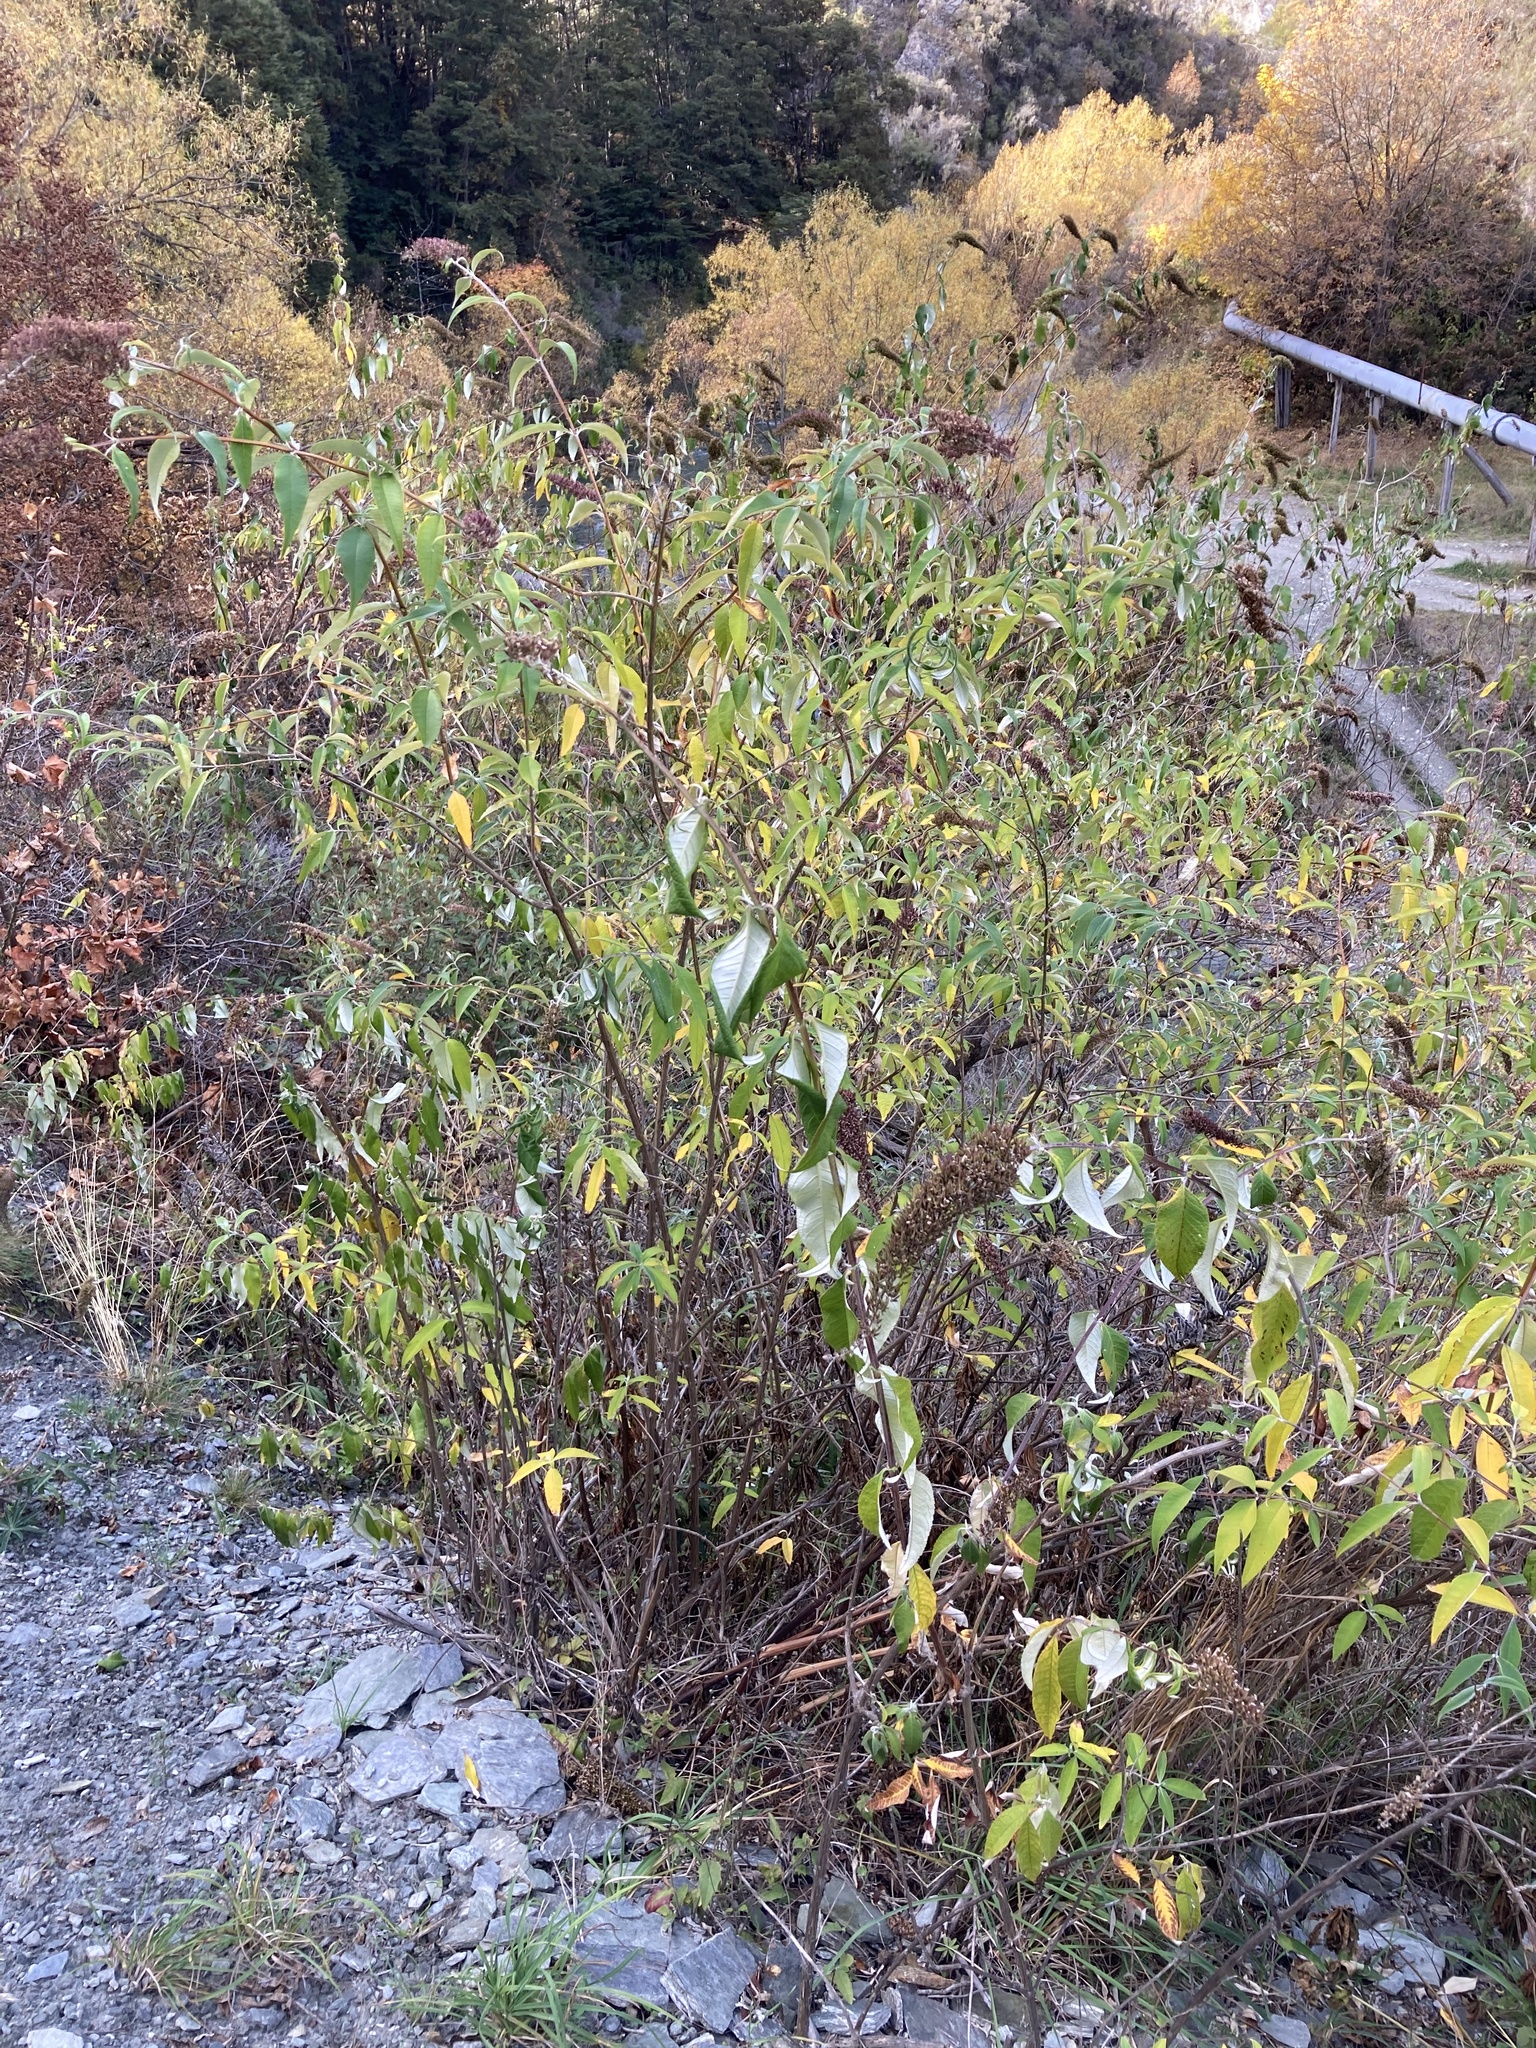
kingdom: Plantae
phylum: Tracheophyta
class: Magnoliopsida
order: Lamiales
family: Scrophulariaceae
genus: Buddleja
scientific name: Buddleja davidii
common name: Butterfly-bush
